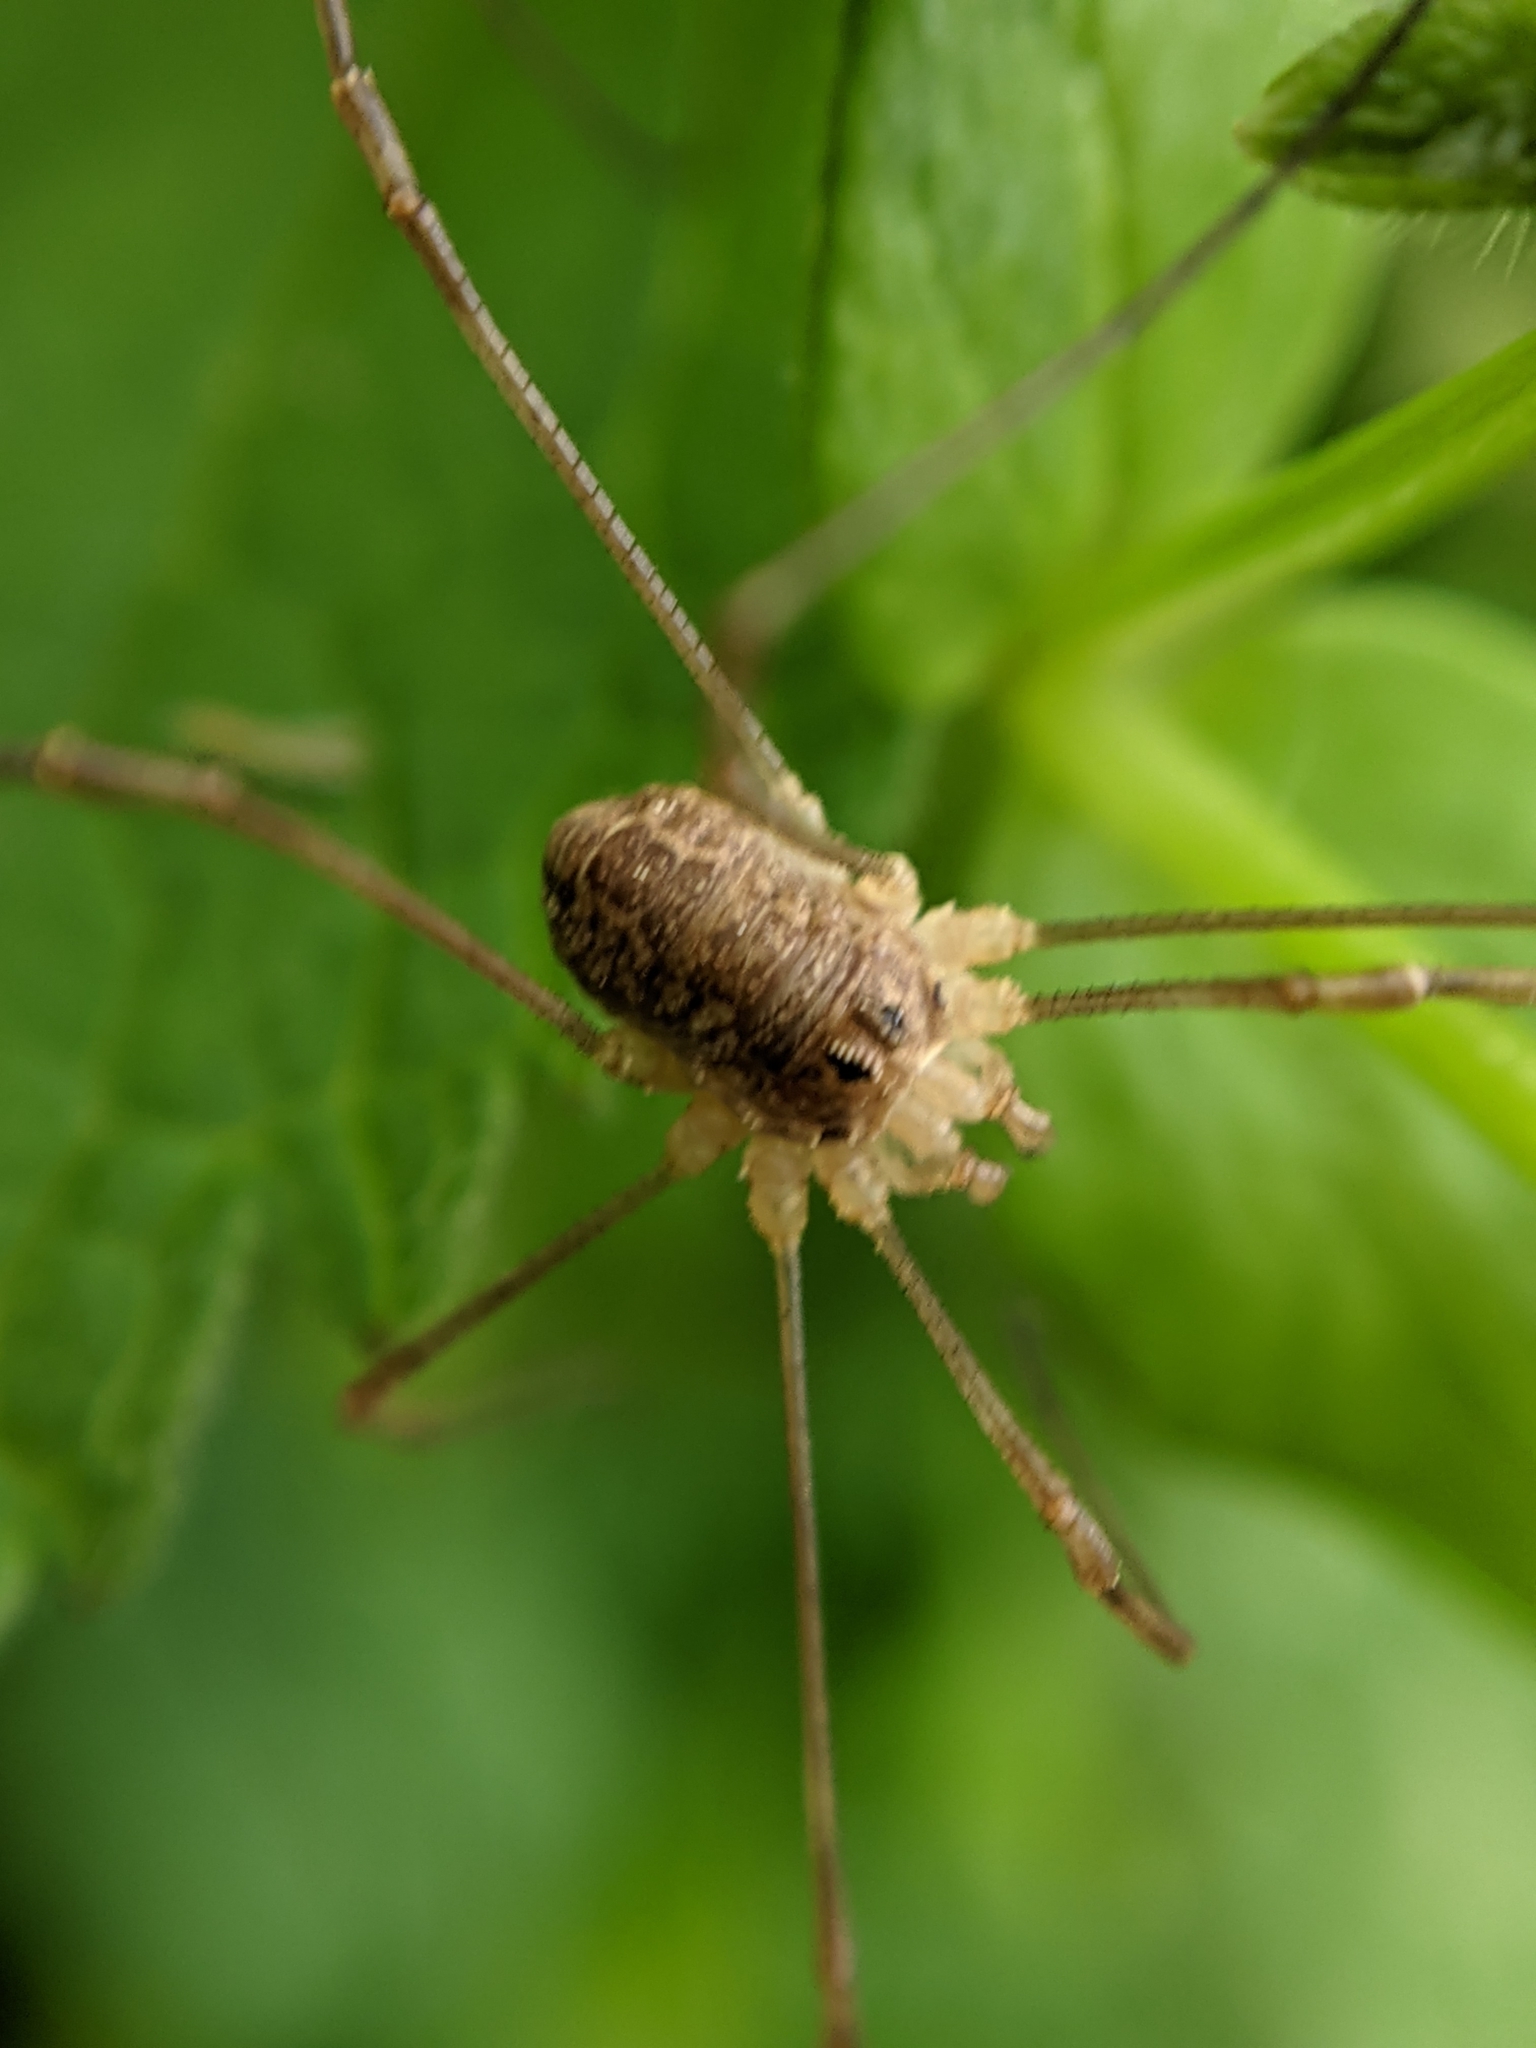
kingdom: Animalia
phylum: Arthropoda
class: Arachnida
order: Opiliones
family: Phalangiidae
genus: Rilaena
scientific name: Rilaena triangularis
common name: Spring harvestman
